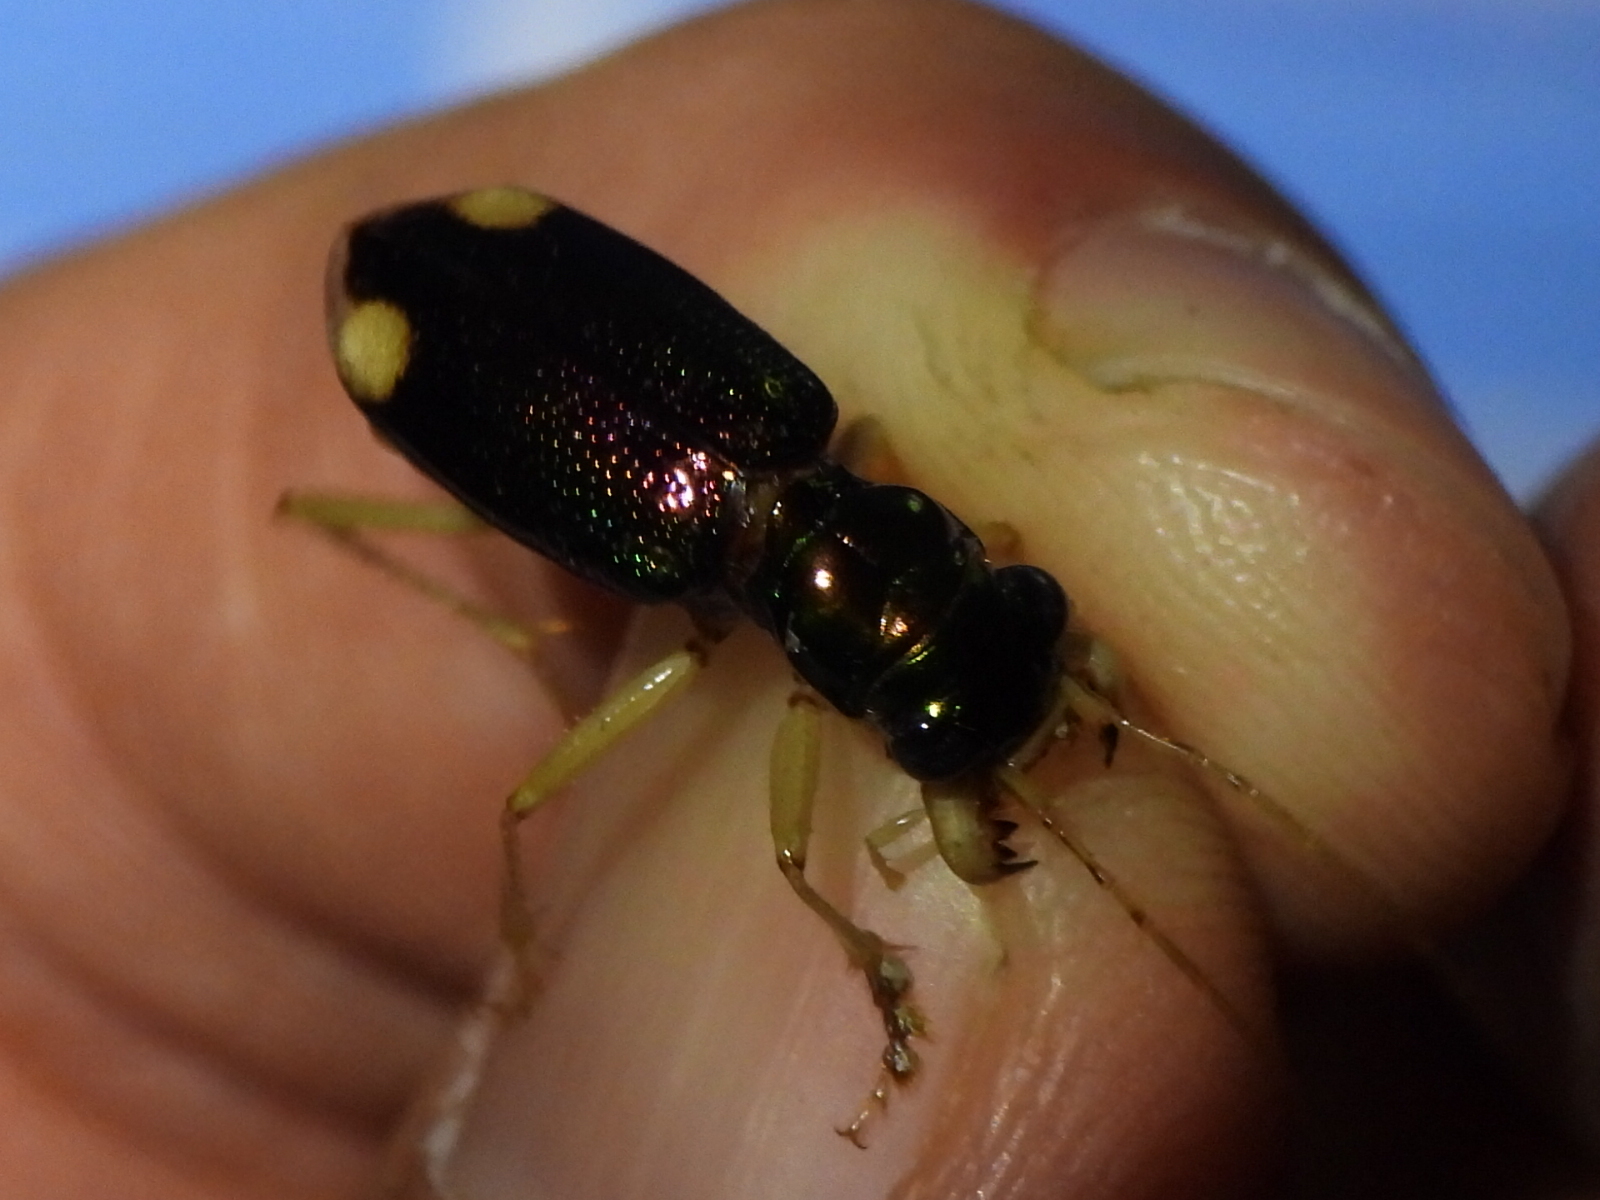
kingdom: Animalia
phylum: Arthropoda
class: Insecta
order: Coleoptera
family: Carabidae
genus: Tetracha
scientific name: Tetracha carolina
